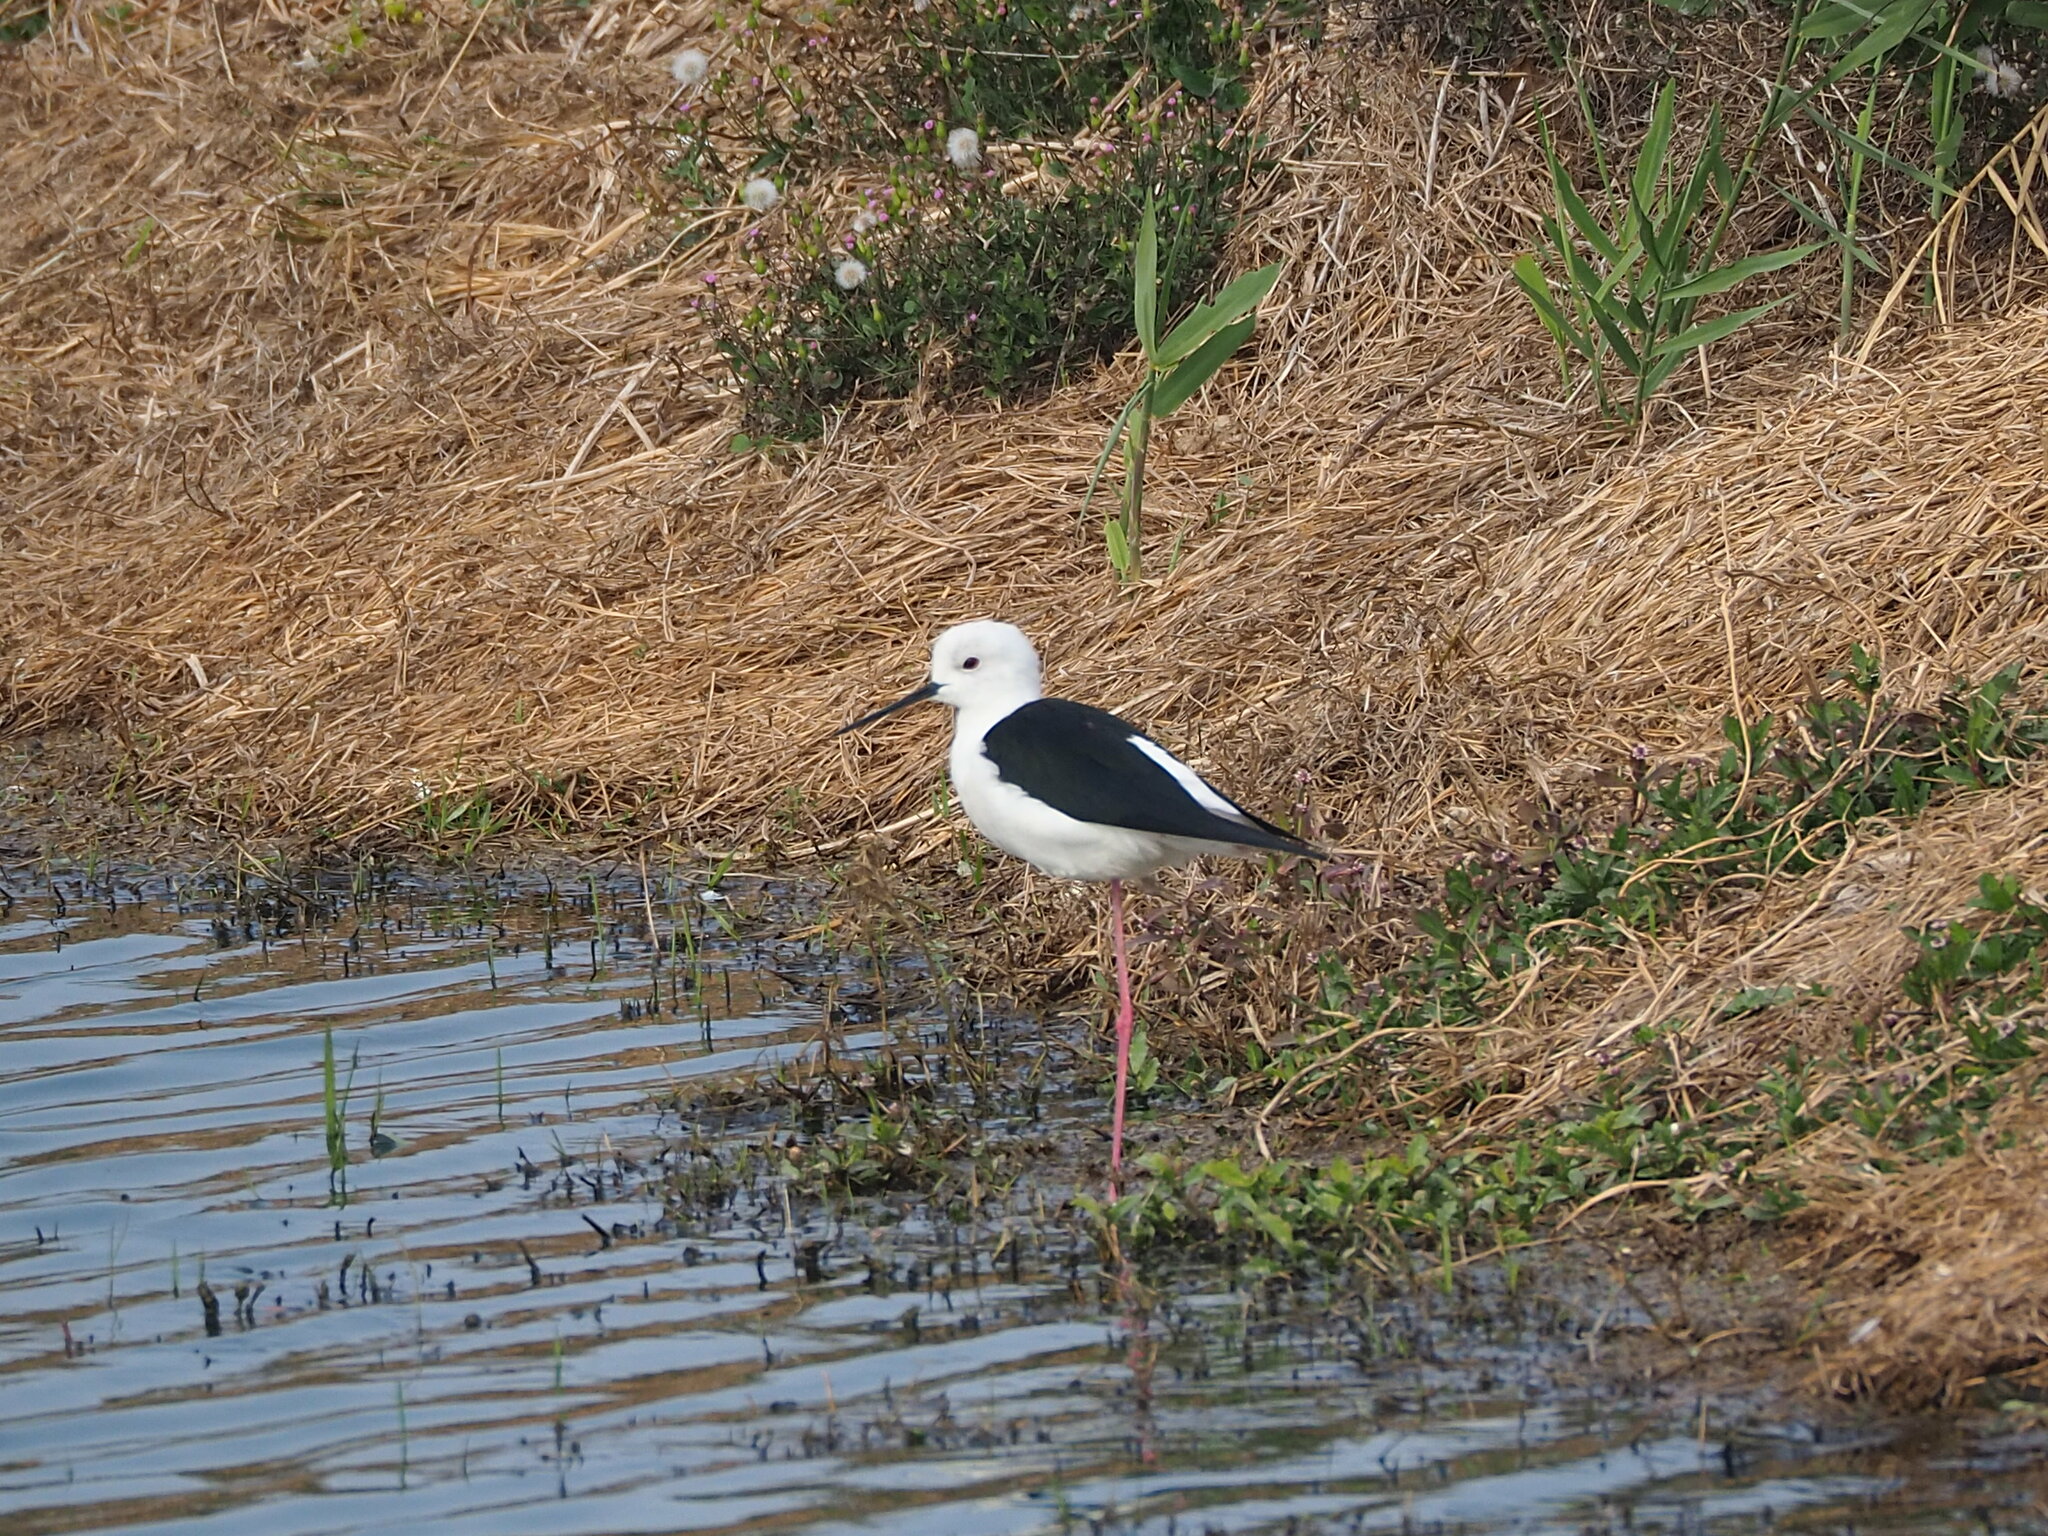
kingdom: Animalia
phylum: Chordata
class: Aves
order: Charadriiformes
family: Recurvirostridae
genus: Himantopus
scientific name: Himantopus himantopus
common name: Black-winged stilt
